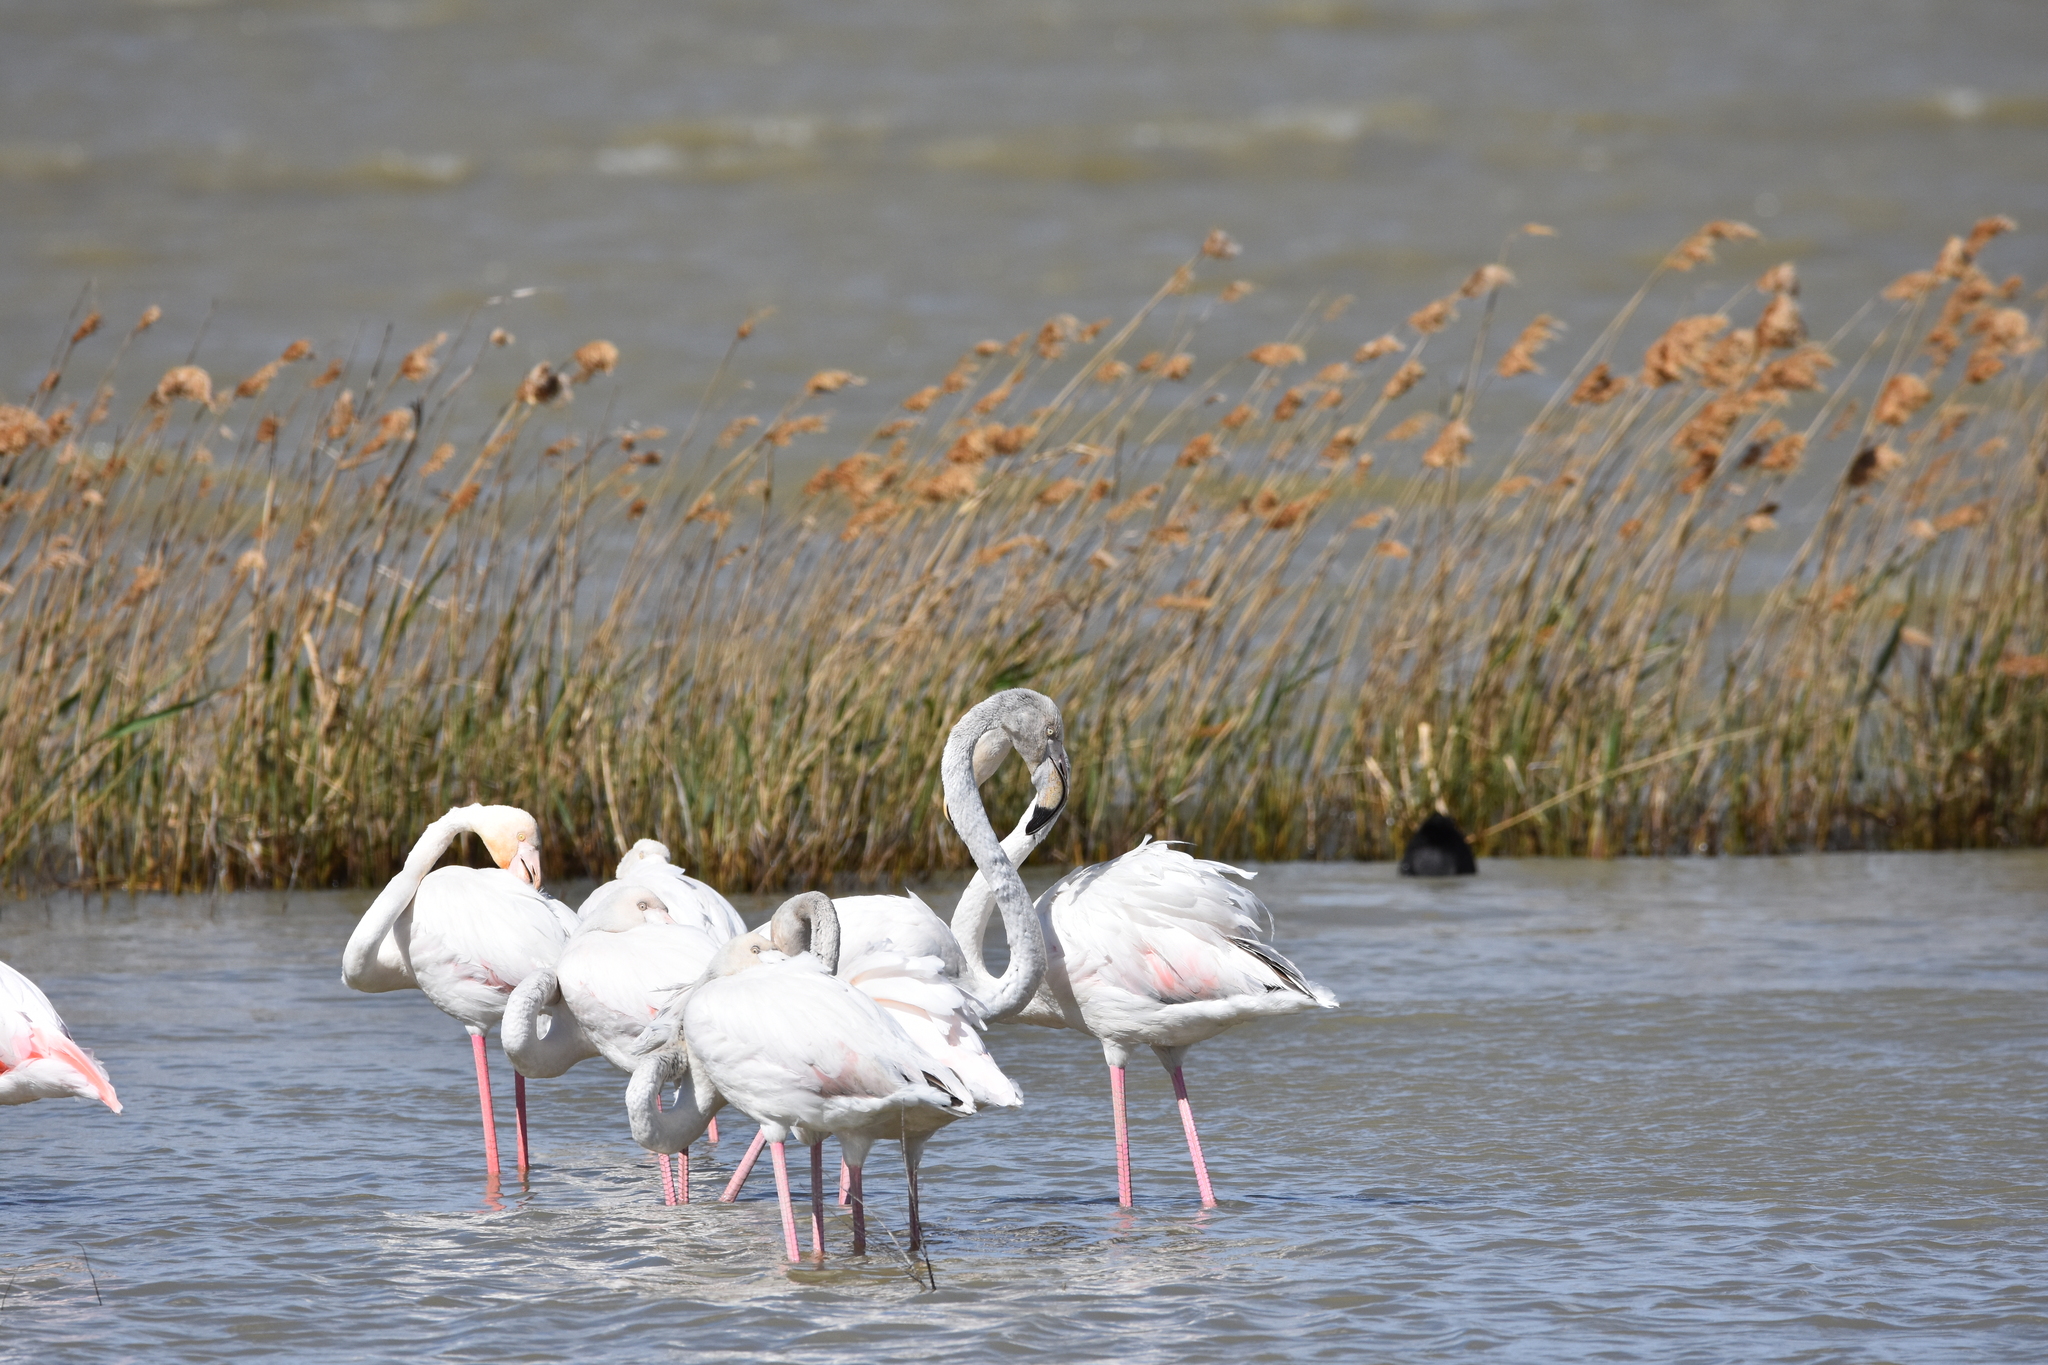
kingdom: Animalia
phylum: Chordata
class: Aves
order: Phoenicopteriformes
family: Phoenicopteridae
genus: Phoenicopterus
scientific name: Phoenicopterus roseus
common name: Greater flamingo
